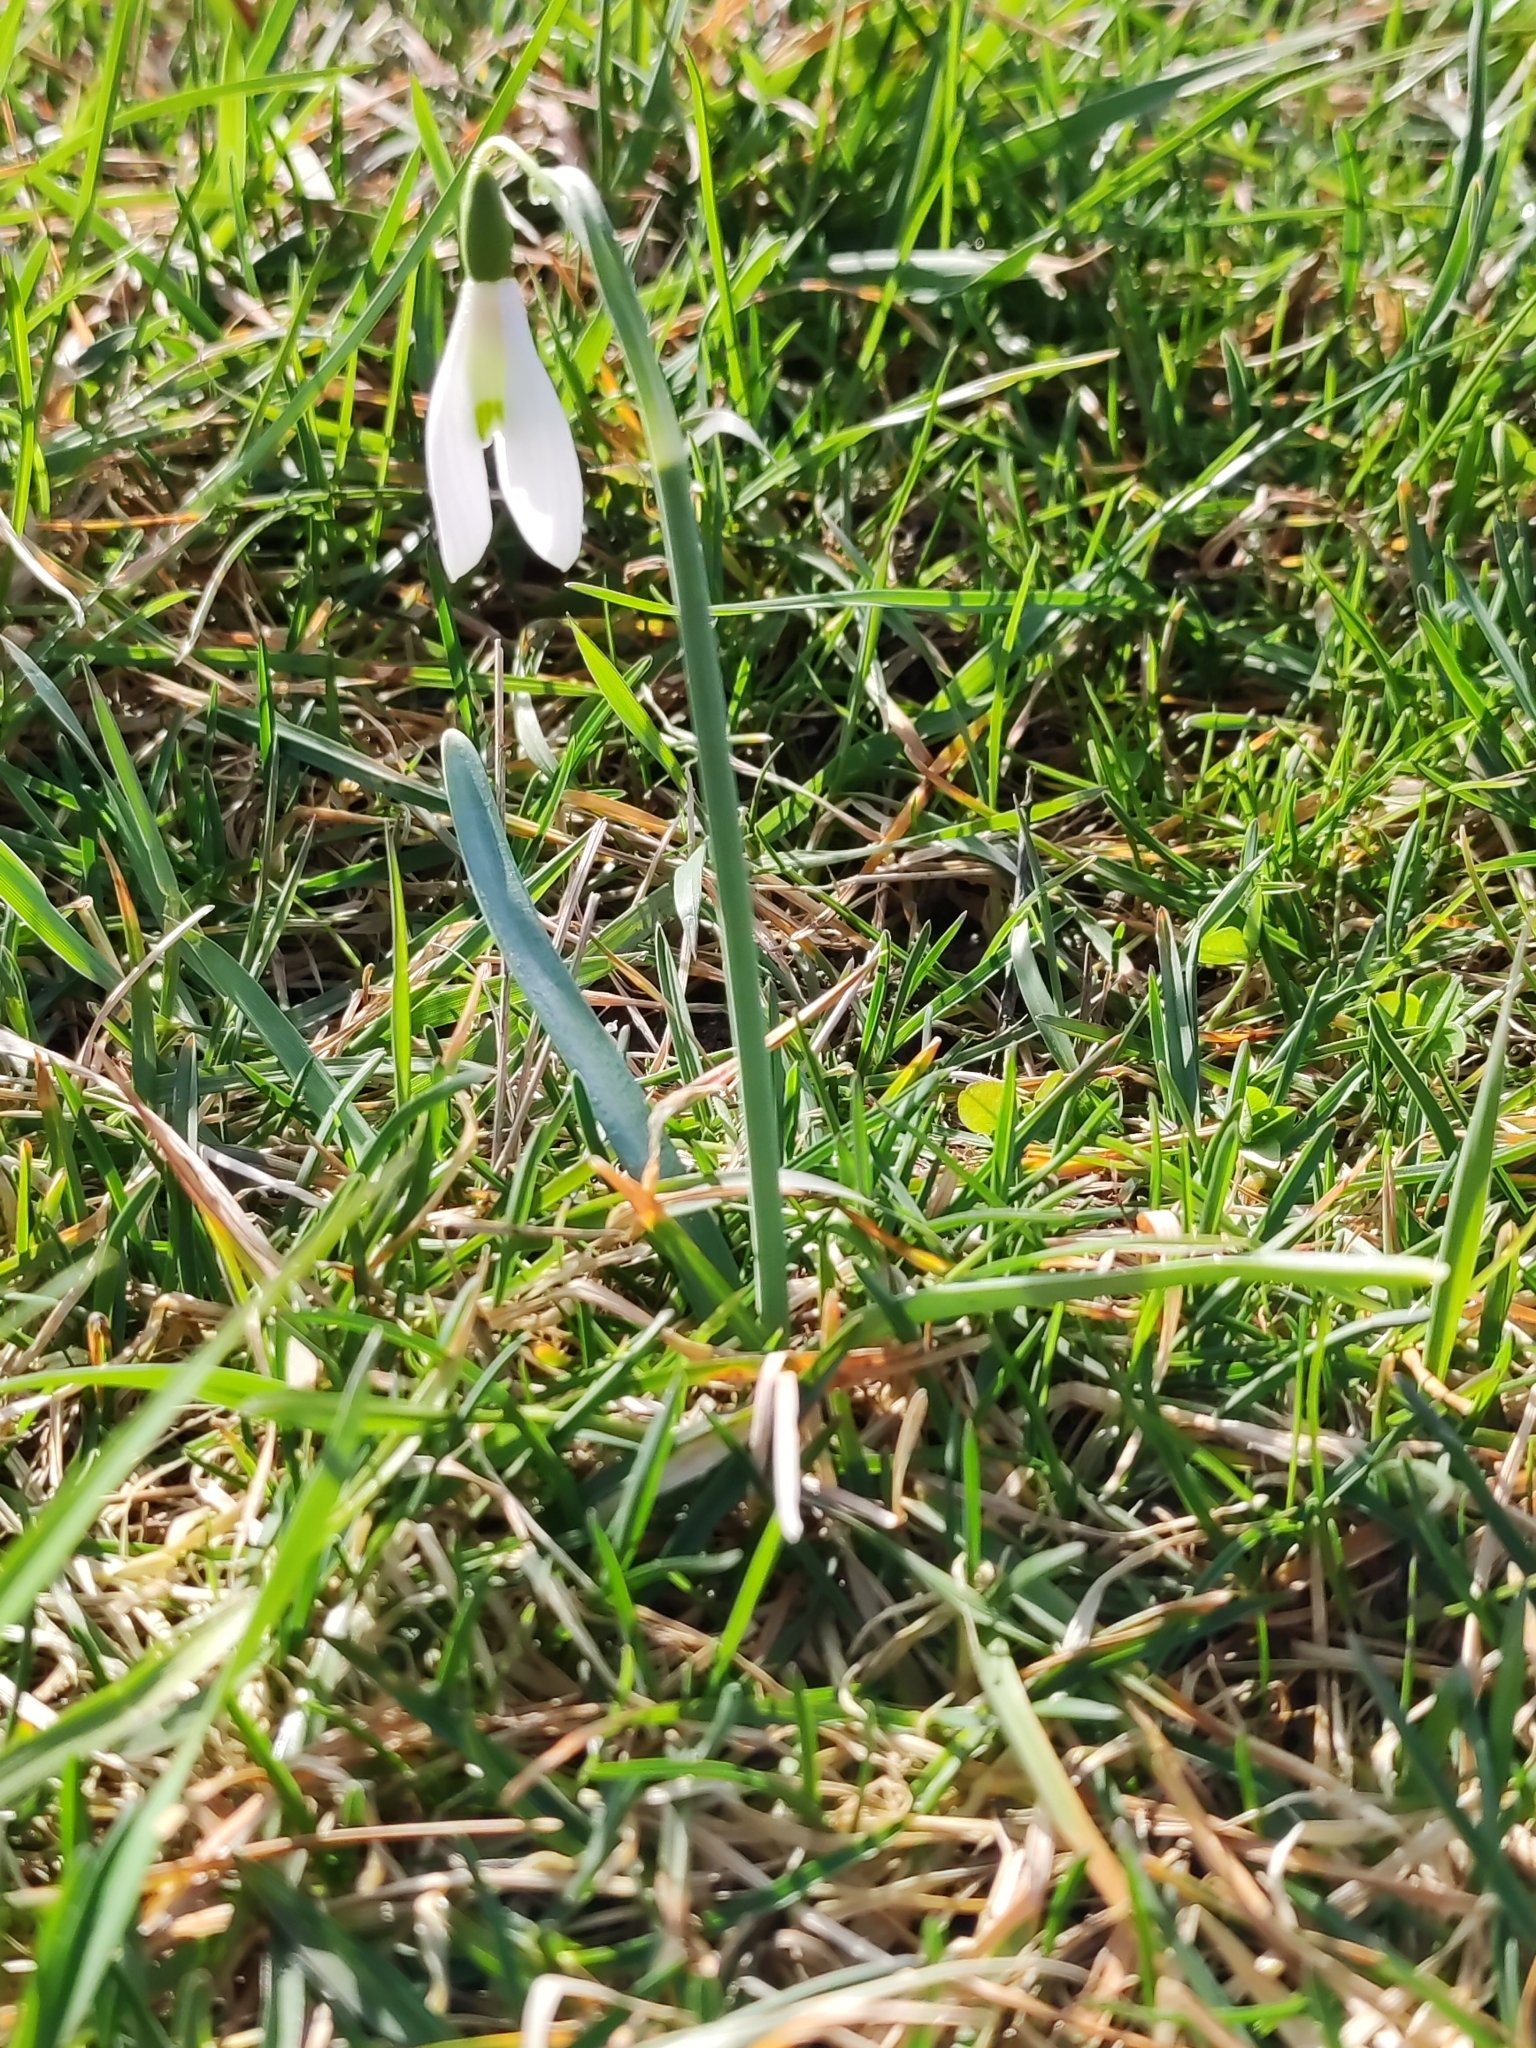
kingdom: Plantae
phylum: Tracheophyta
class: Liliopsida
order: Asparagales
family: Amaryllidaceae
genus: Galanthus
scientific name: Galanthus nivalis
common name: Snowdrop
